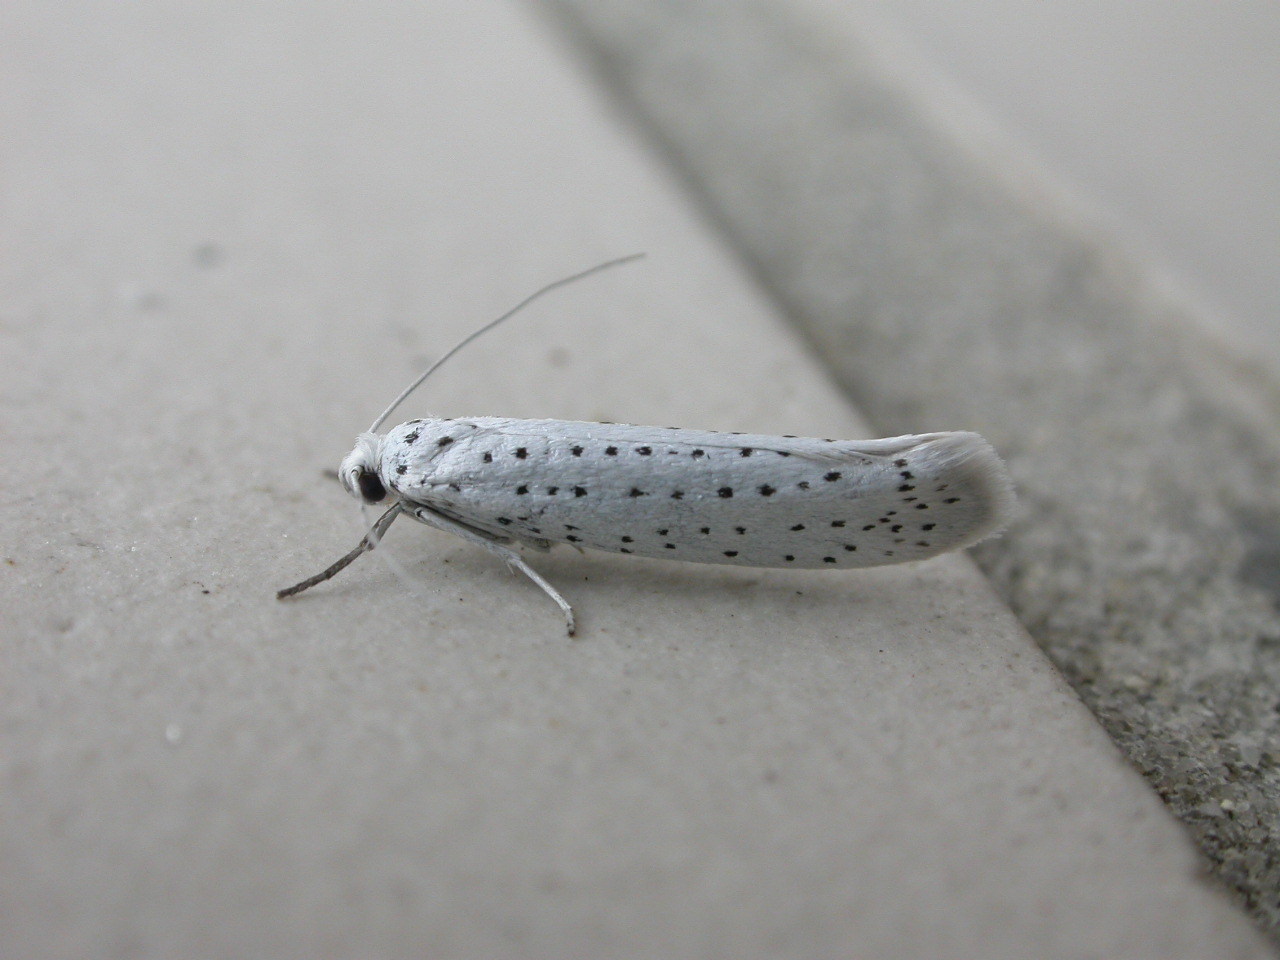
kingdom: Animalia
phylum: Arthropoda
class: Insecta
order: Lepidoptera
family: Yponomeutidae
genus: Yponomeuta
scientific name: Yponomeuta evonymella
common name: Bird-cherry ermine
